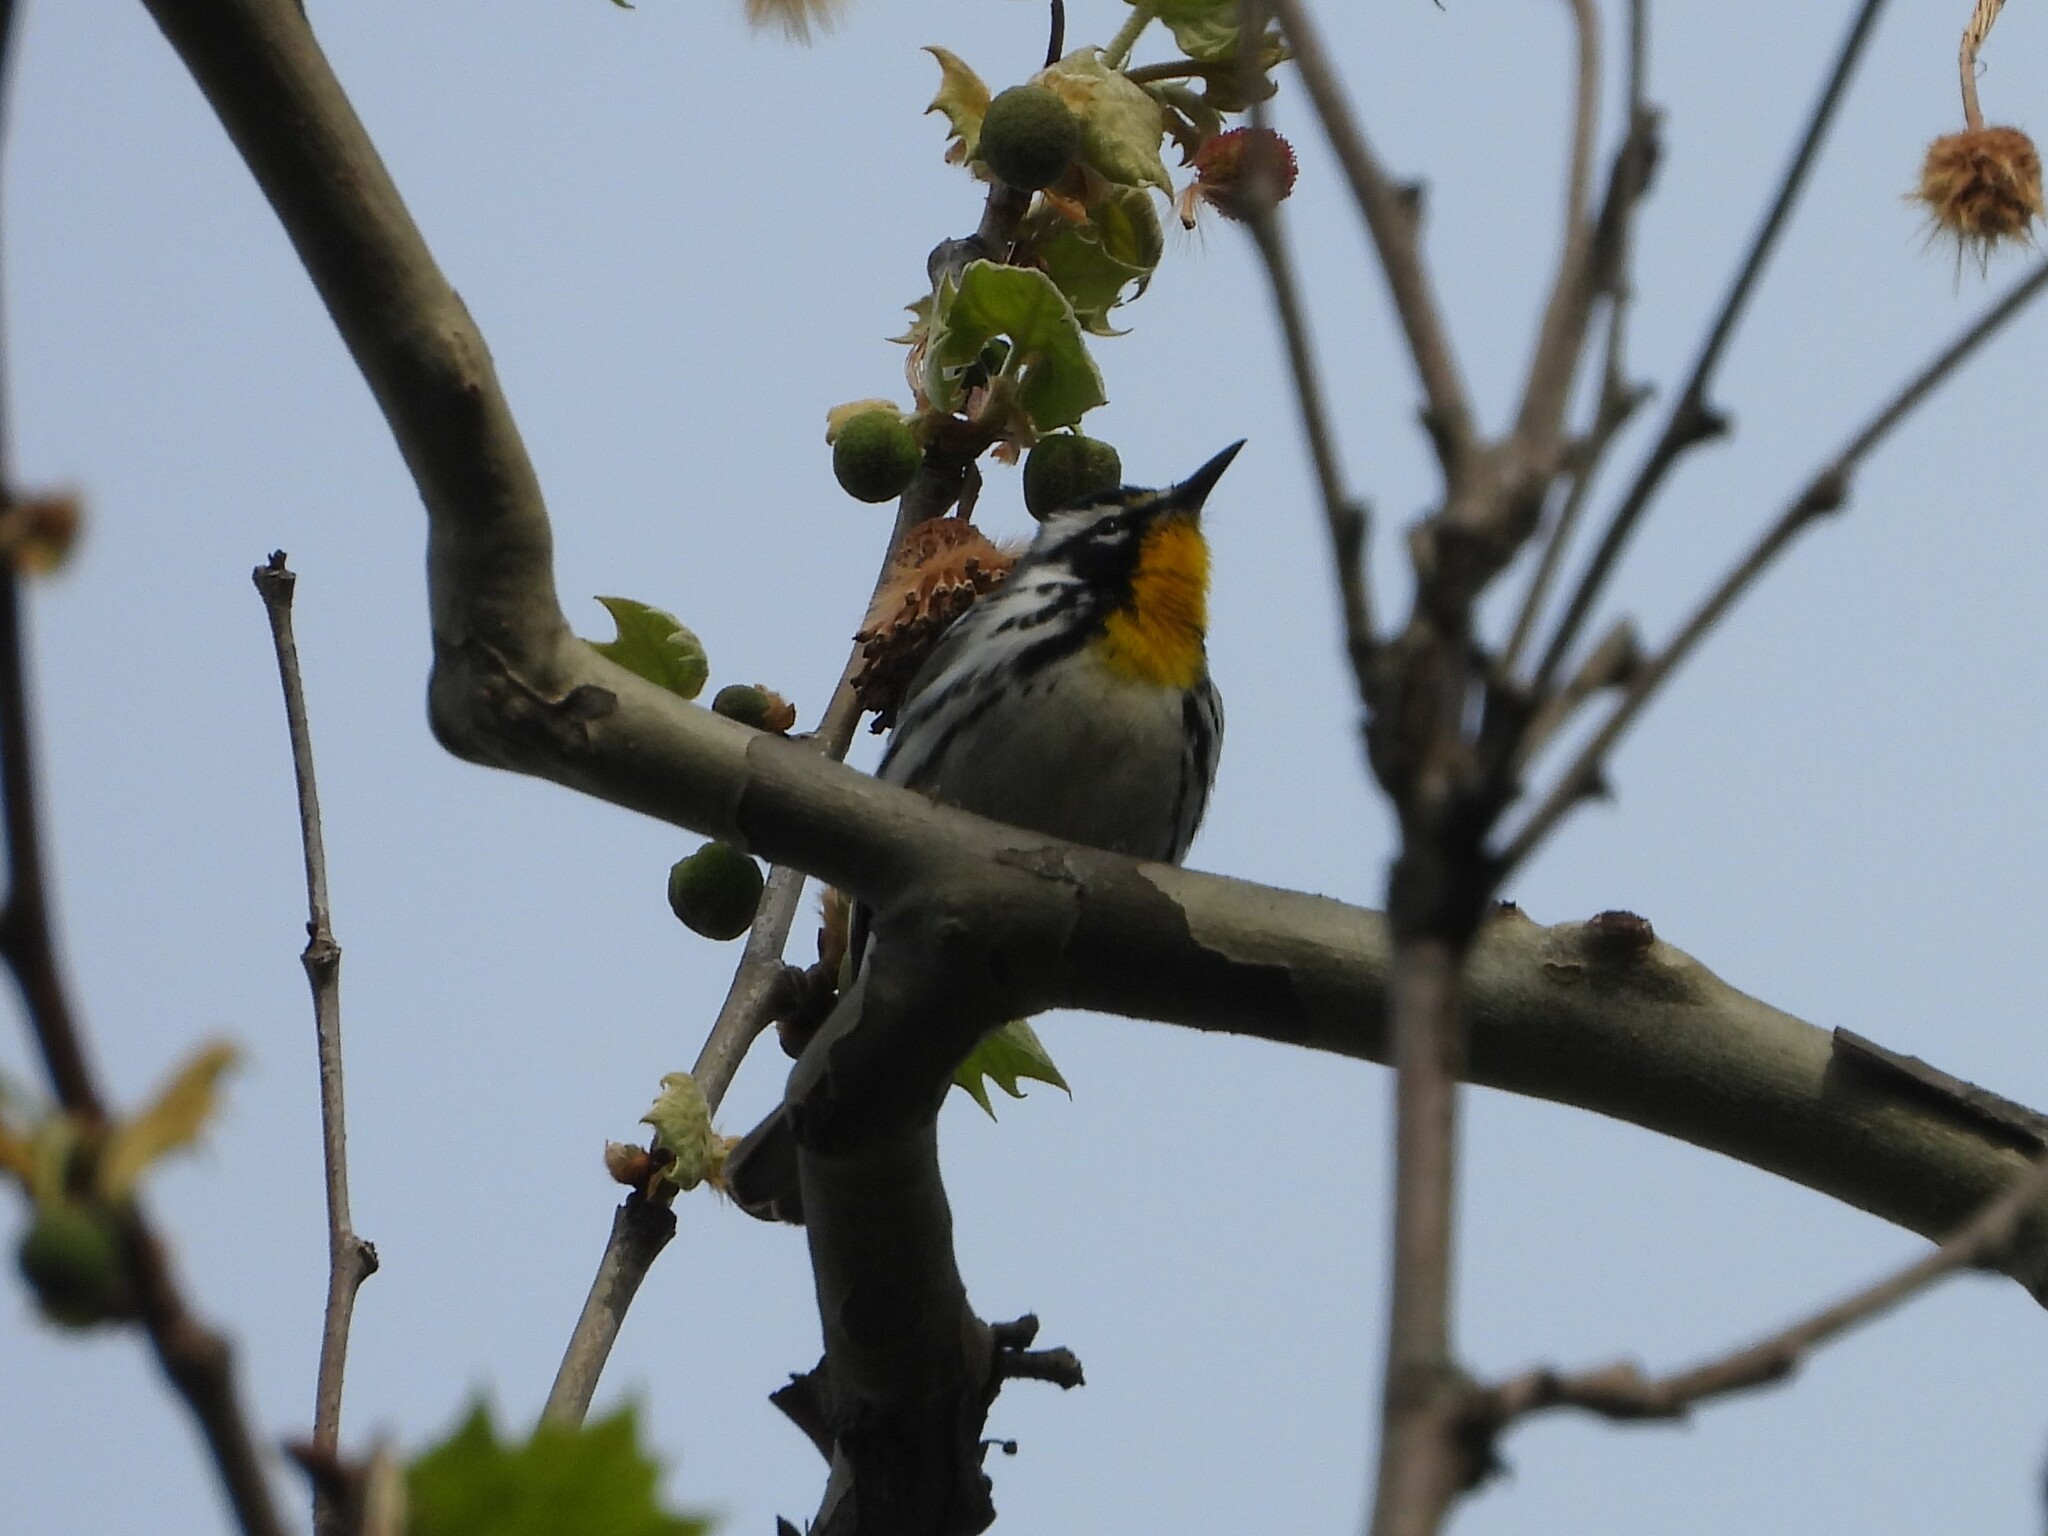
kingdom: Animalia
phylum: Chordata
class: Aves
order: Passeriformes
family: Parulidae
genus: Setophaga
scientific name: Setophaga dominica
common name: Yellow-throated warbler
